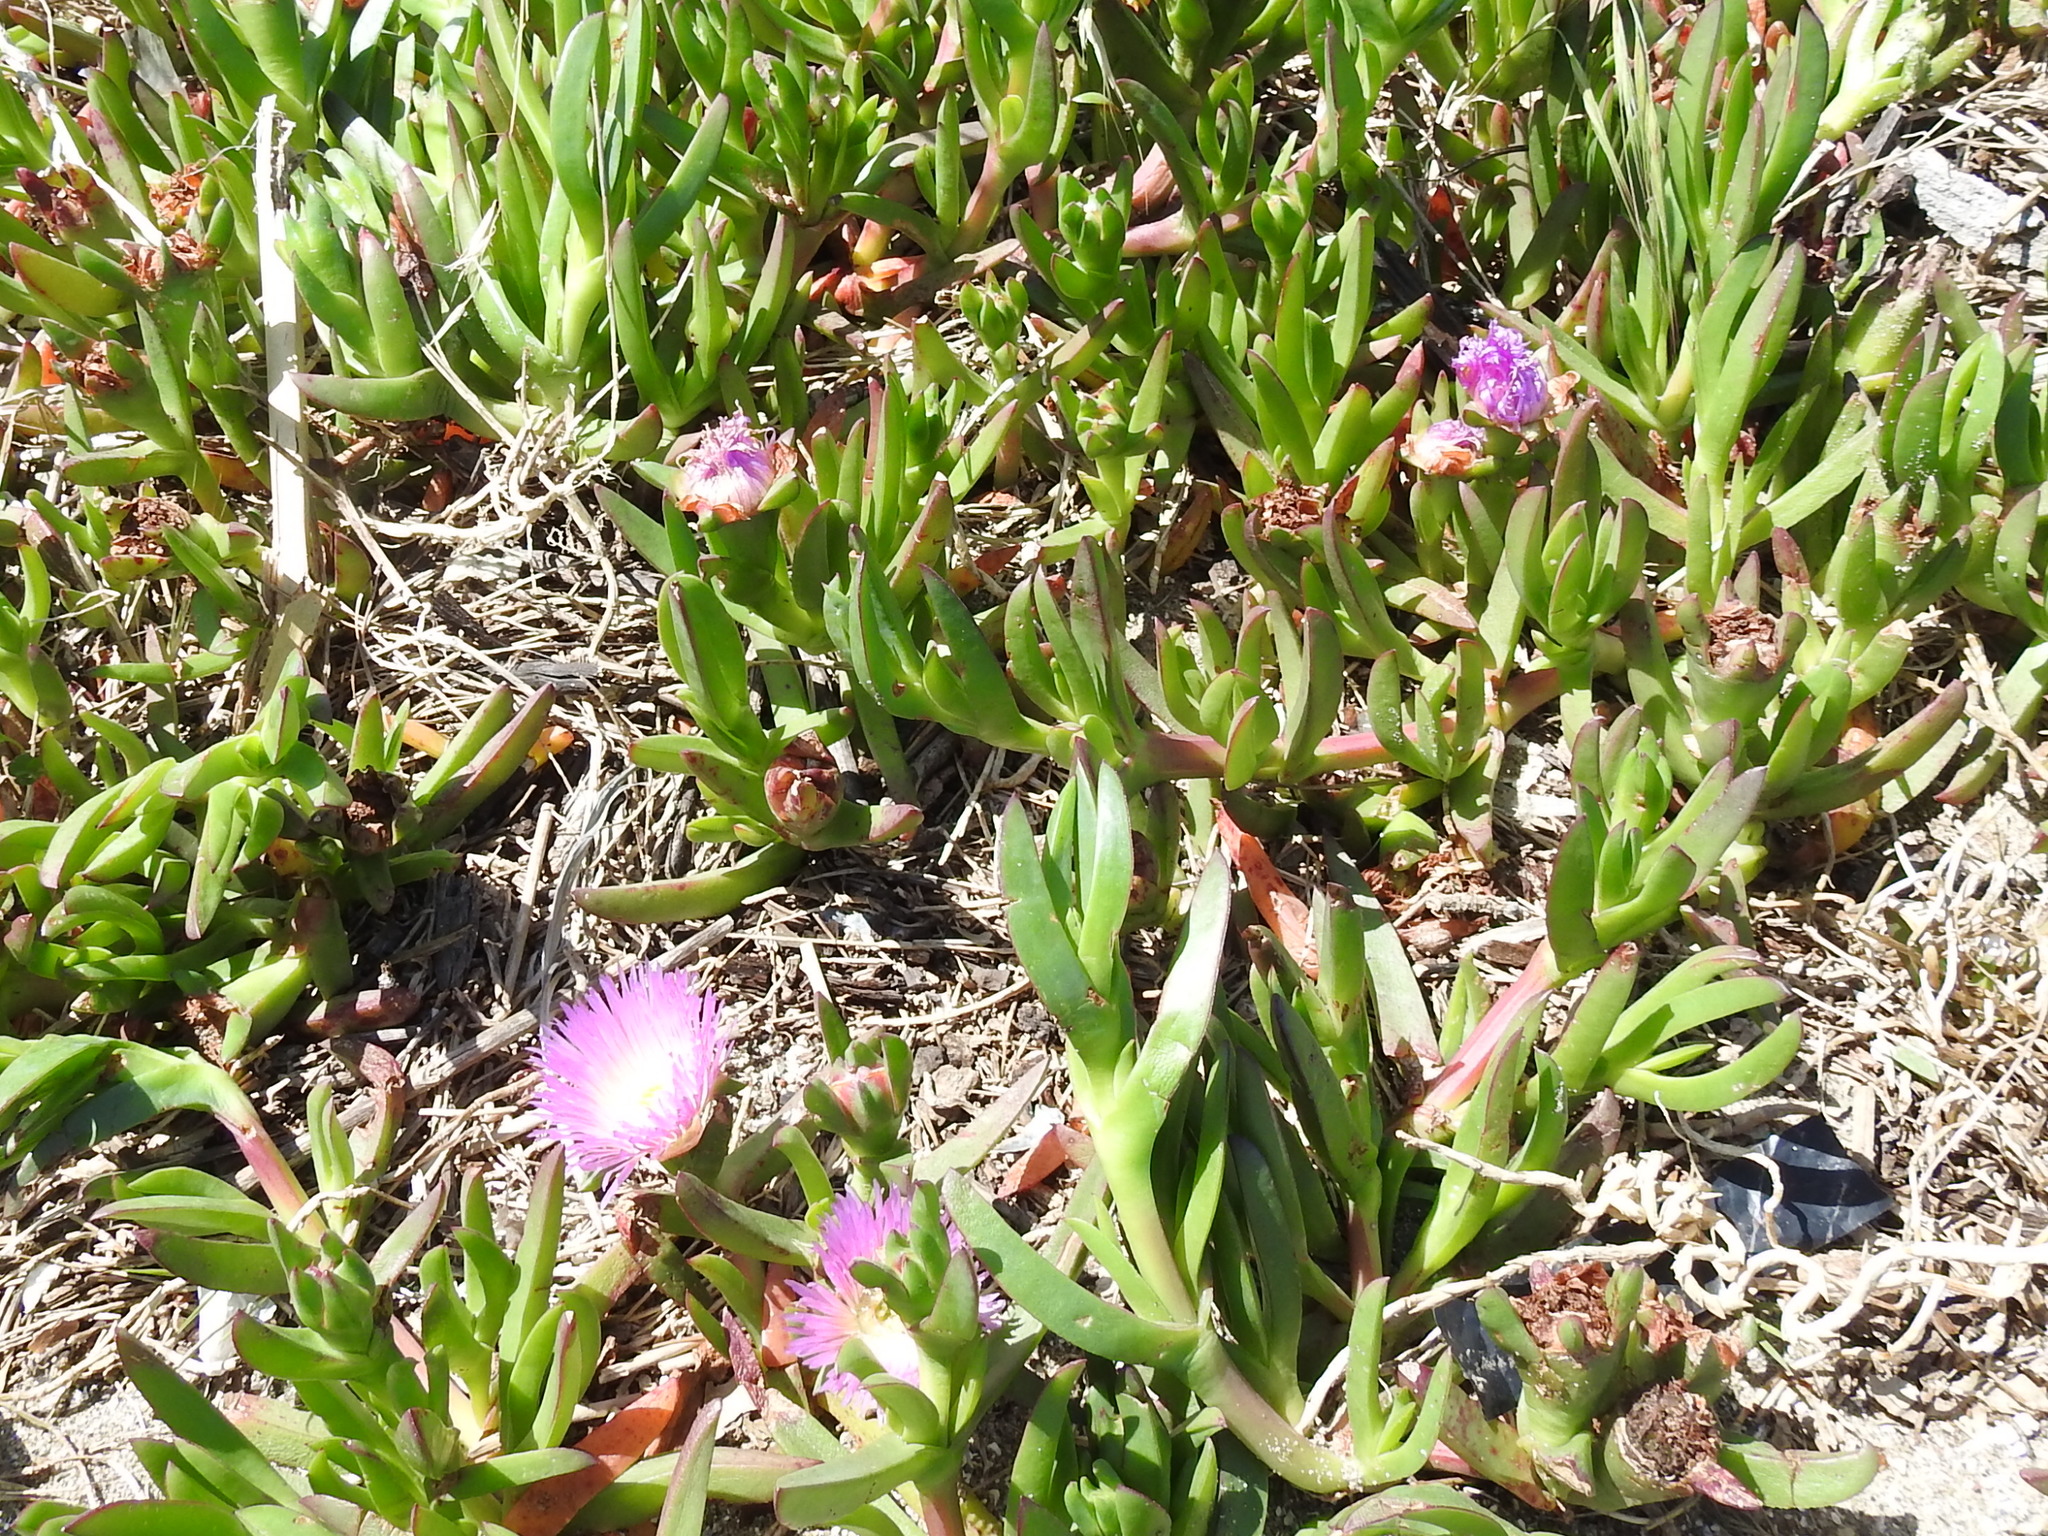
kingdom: Plantae
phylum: Tracheophyta
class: Magnoliopsida
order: Caryophyllales
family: Aizoaceae
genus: Carpobrotus
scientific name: Carpobrotus edulis
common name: Hottentot-fig
